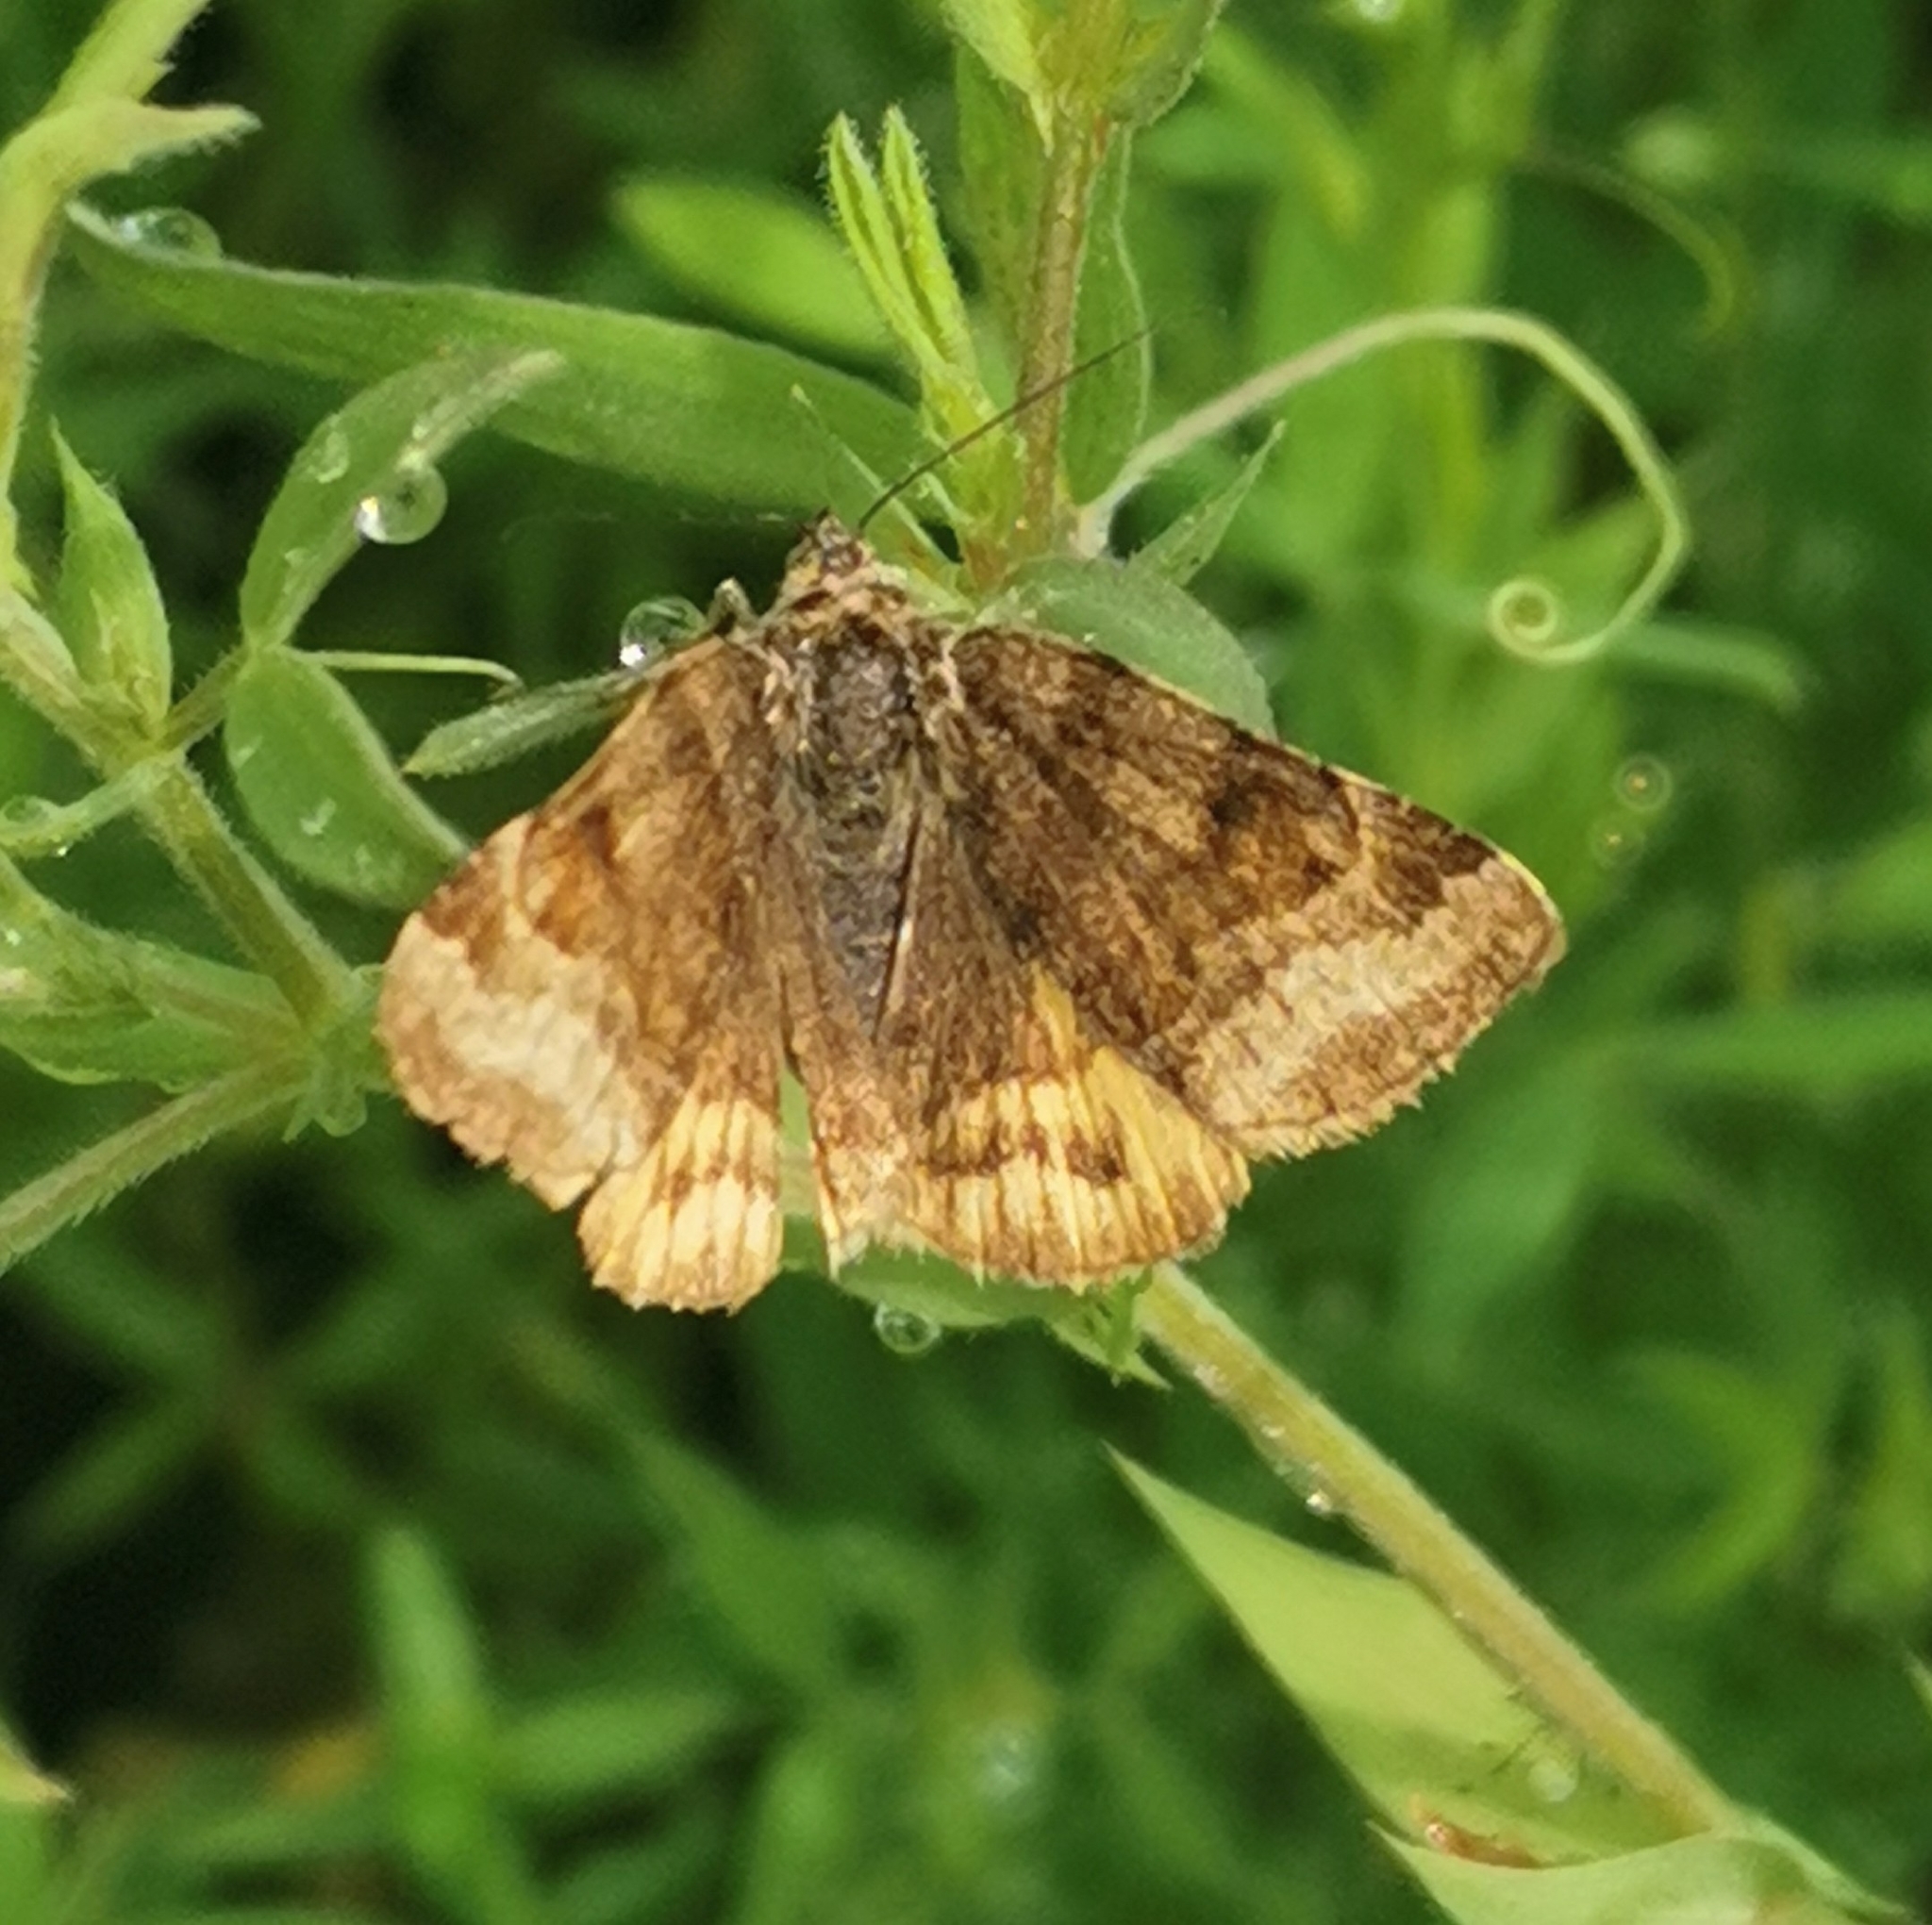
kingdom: Animalia
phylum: Arthropoda
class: Insecta
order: Lepidoptera
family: Erebidae
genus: Euclidia
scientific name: Euclidia glyphica
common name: Burnet companion
